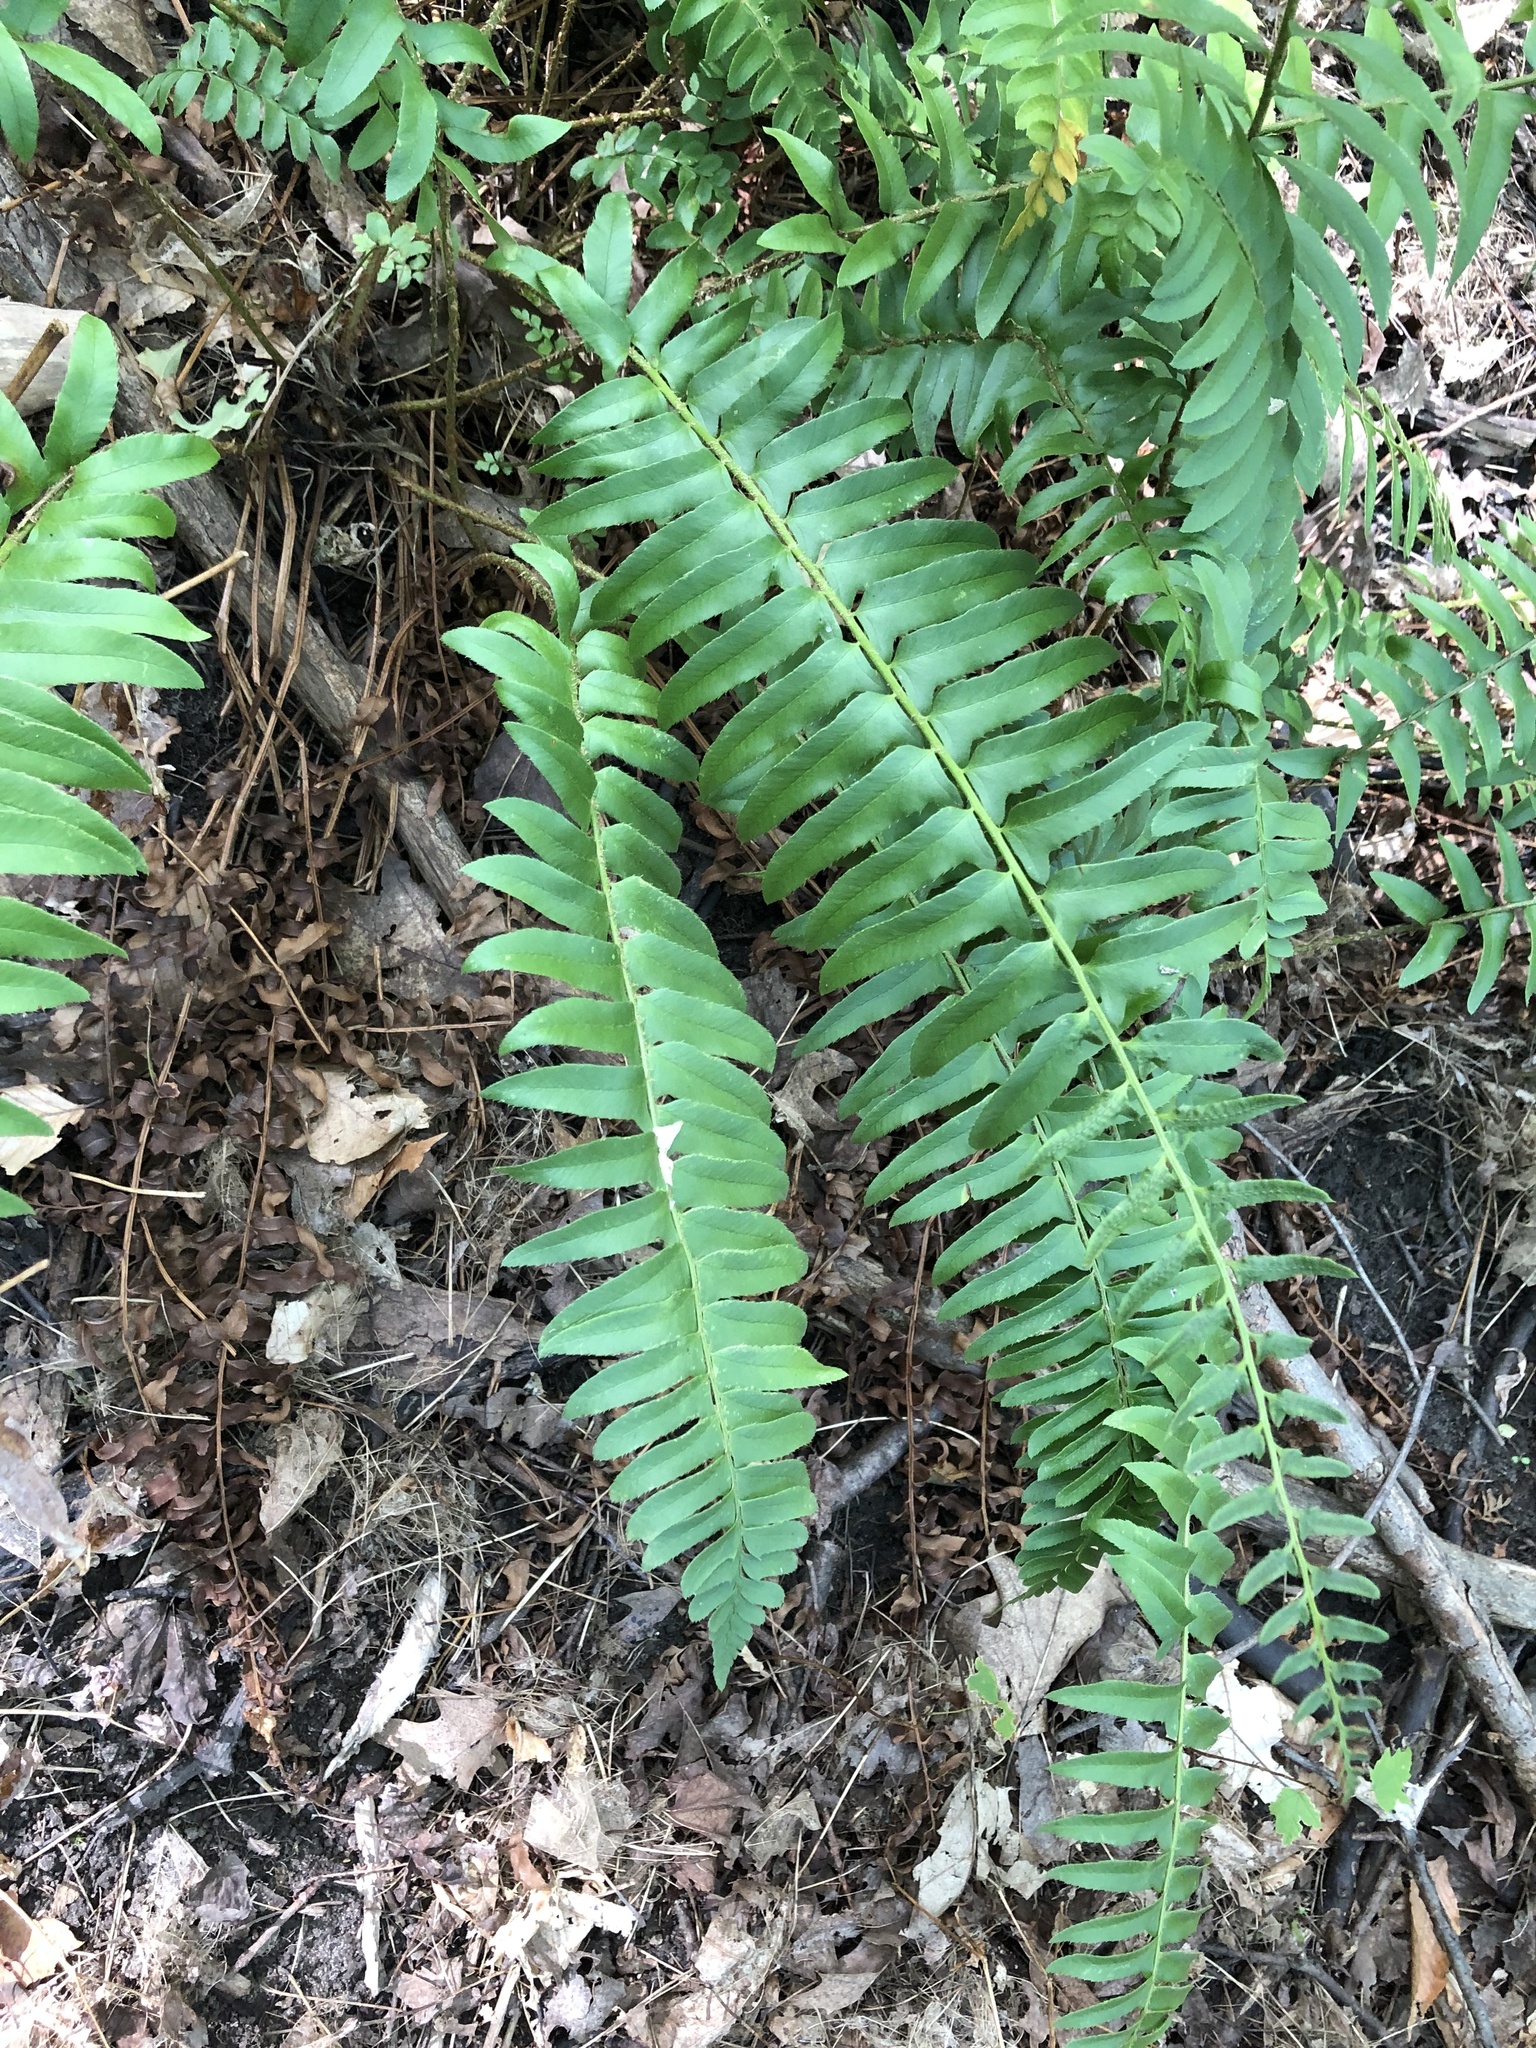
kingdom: Plantae
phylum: Tracheophyta
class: Polypodiopsida
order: Polypodiales
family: Dryopteridaceae
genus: Polystichum
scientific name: Polystichum acrostichoides
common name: Christmas fern
